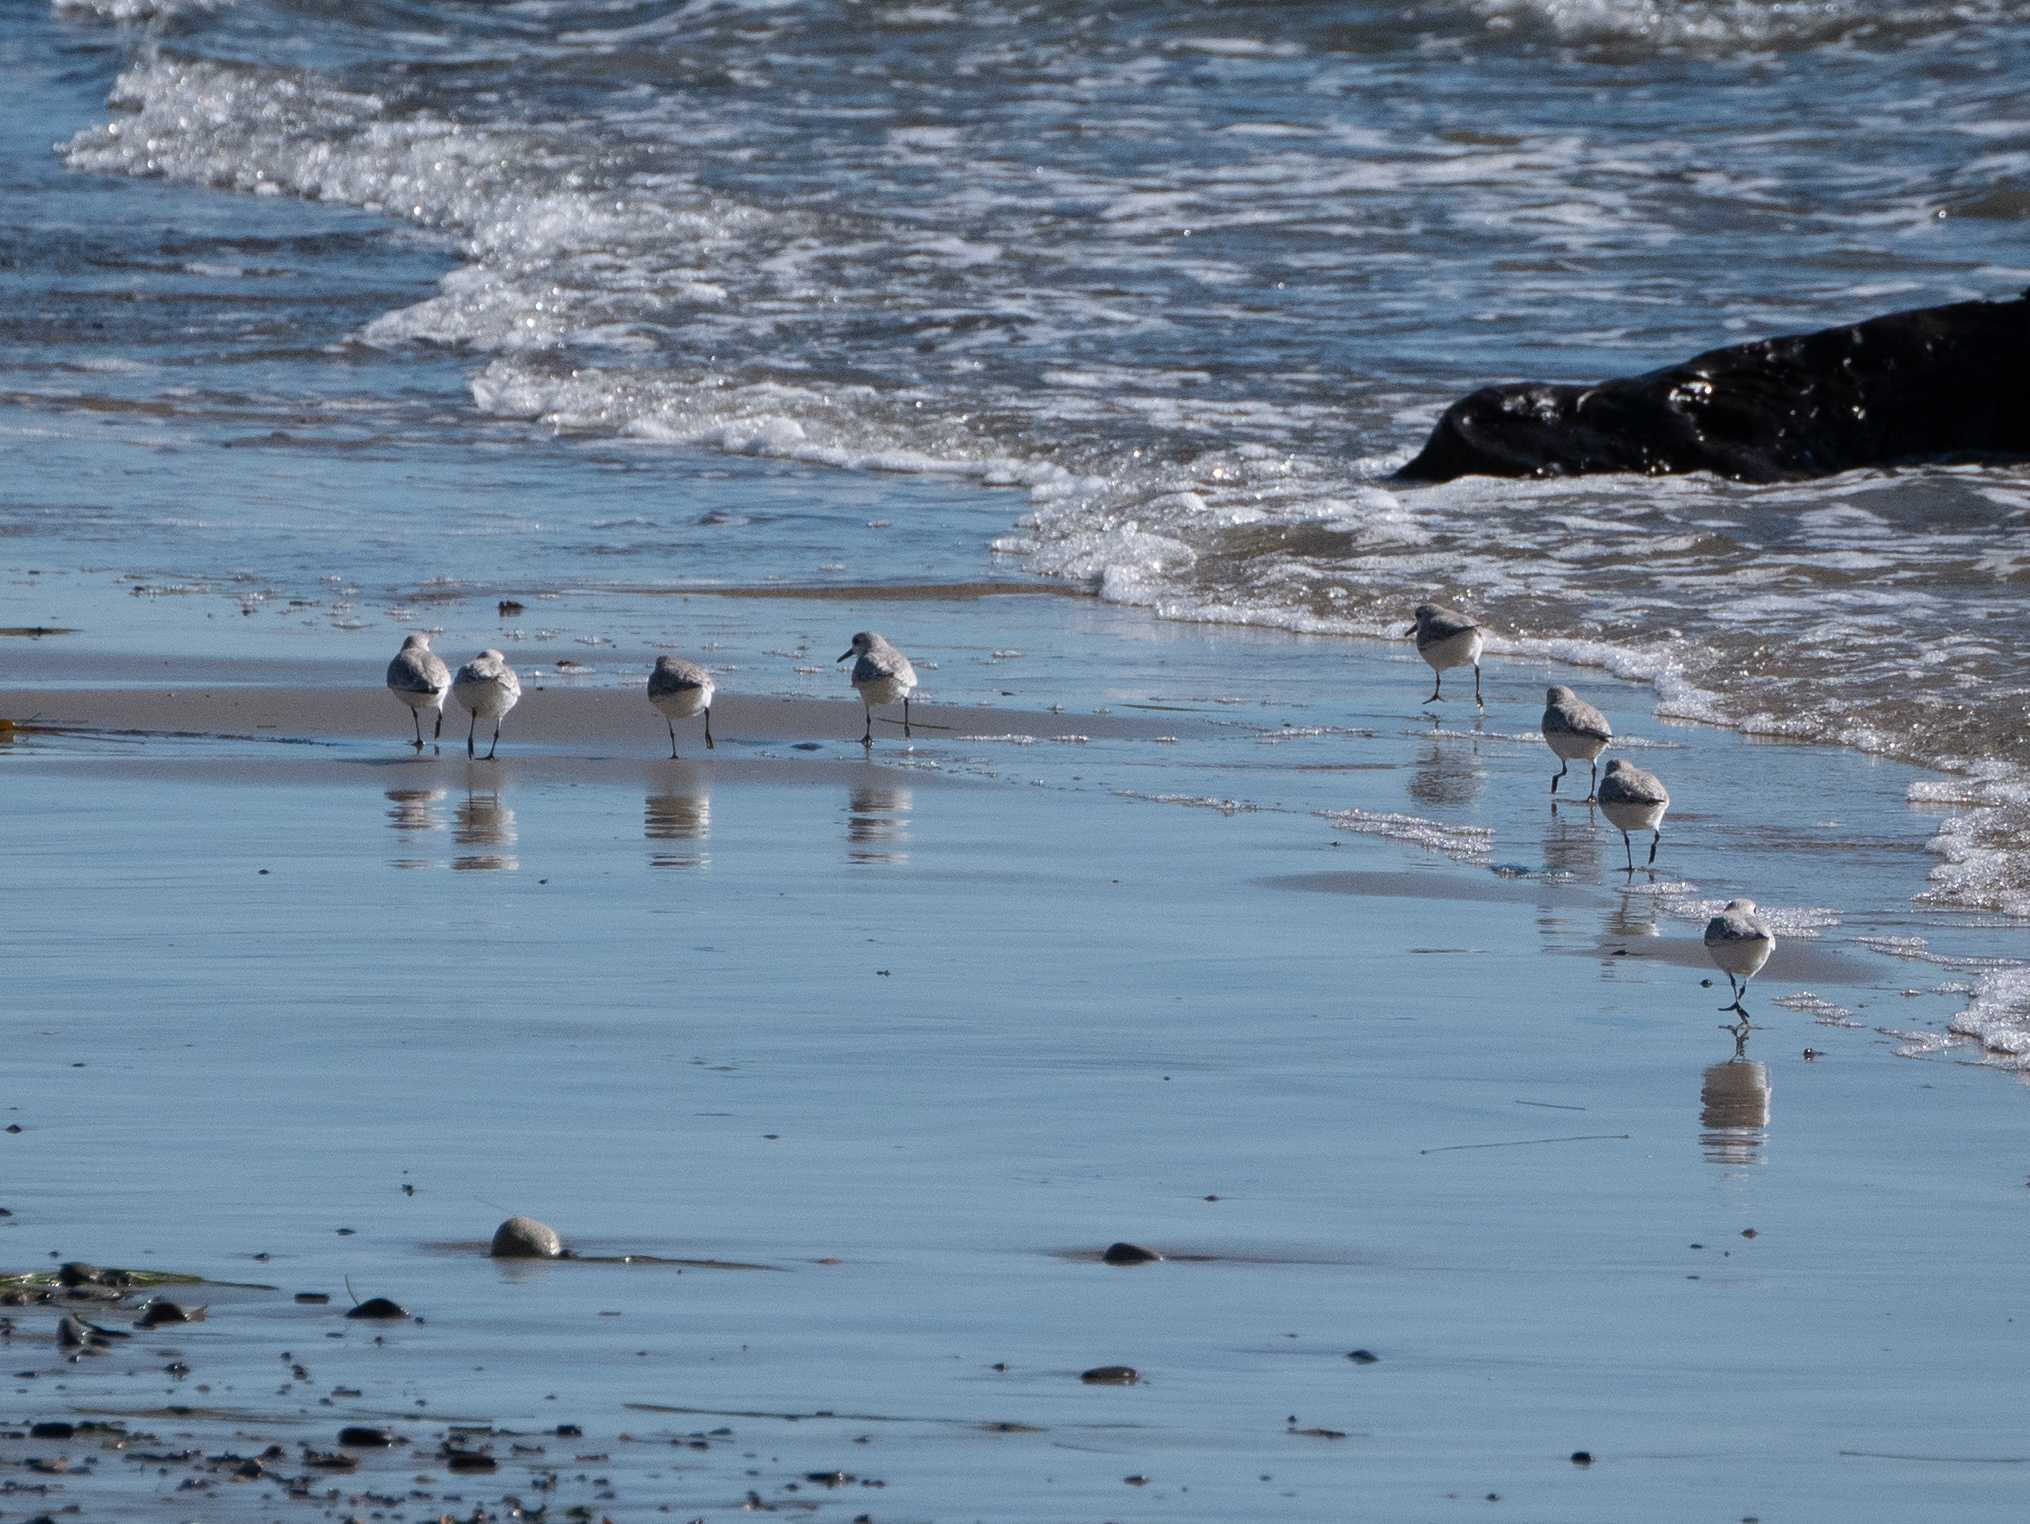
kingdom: Animalia
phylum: Chordata
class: Aves
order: Charadriiformes
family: Scolopacidae
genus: Calidris
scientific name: Calidris alba
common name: Sanderling
